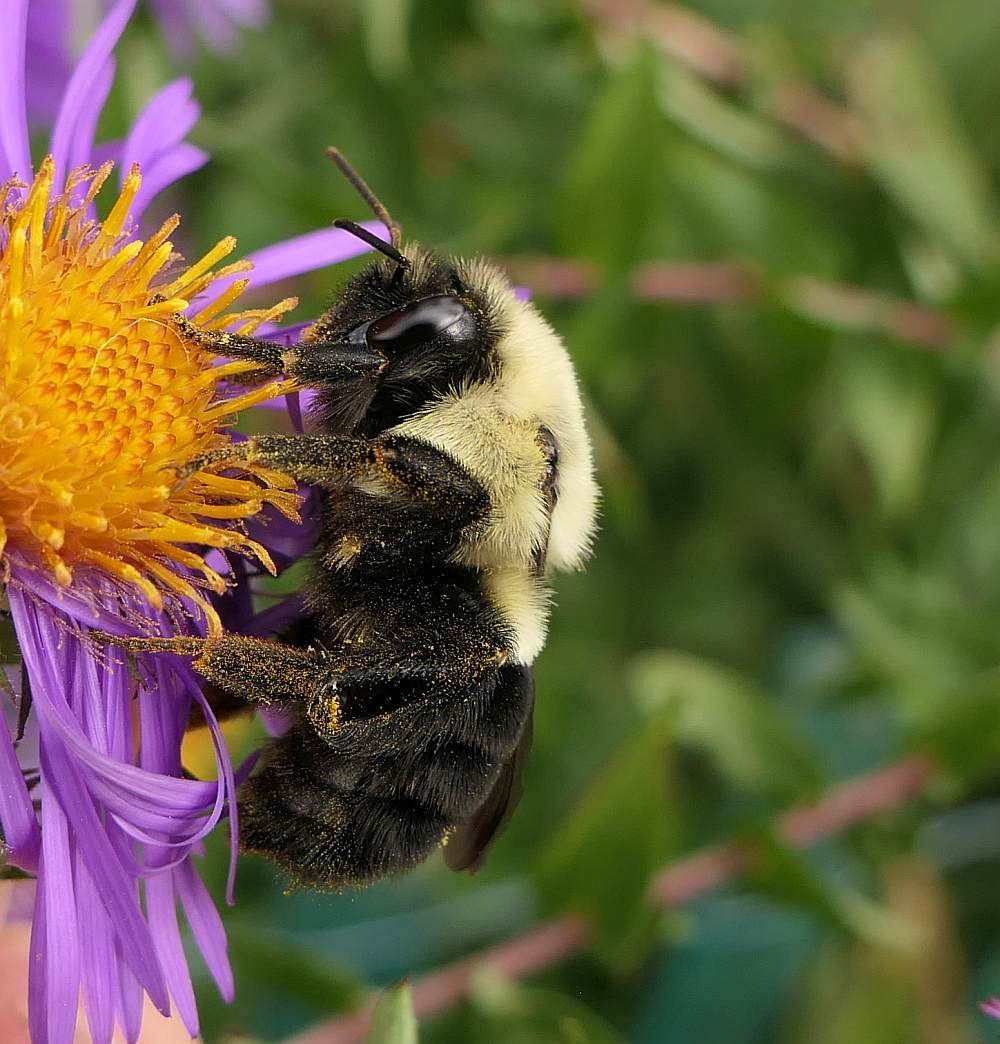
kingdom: Animalia
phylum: Arthropoda
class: Insecta
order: Hymenoptera
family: Apidae
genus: Bombus
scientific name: Bombus impatiens
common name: Common eastern bumble bee
